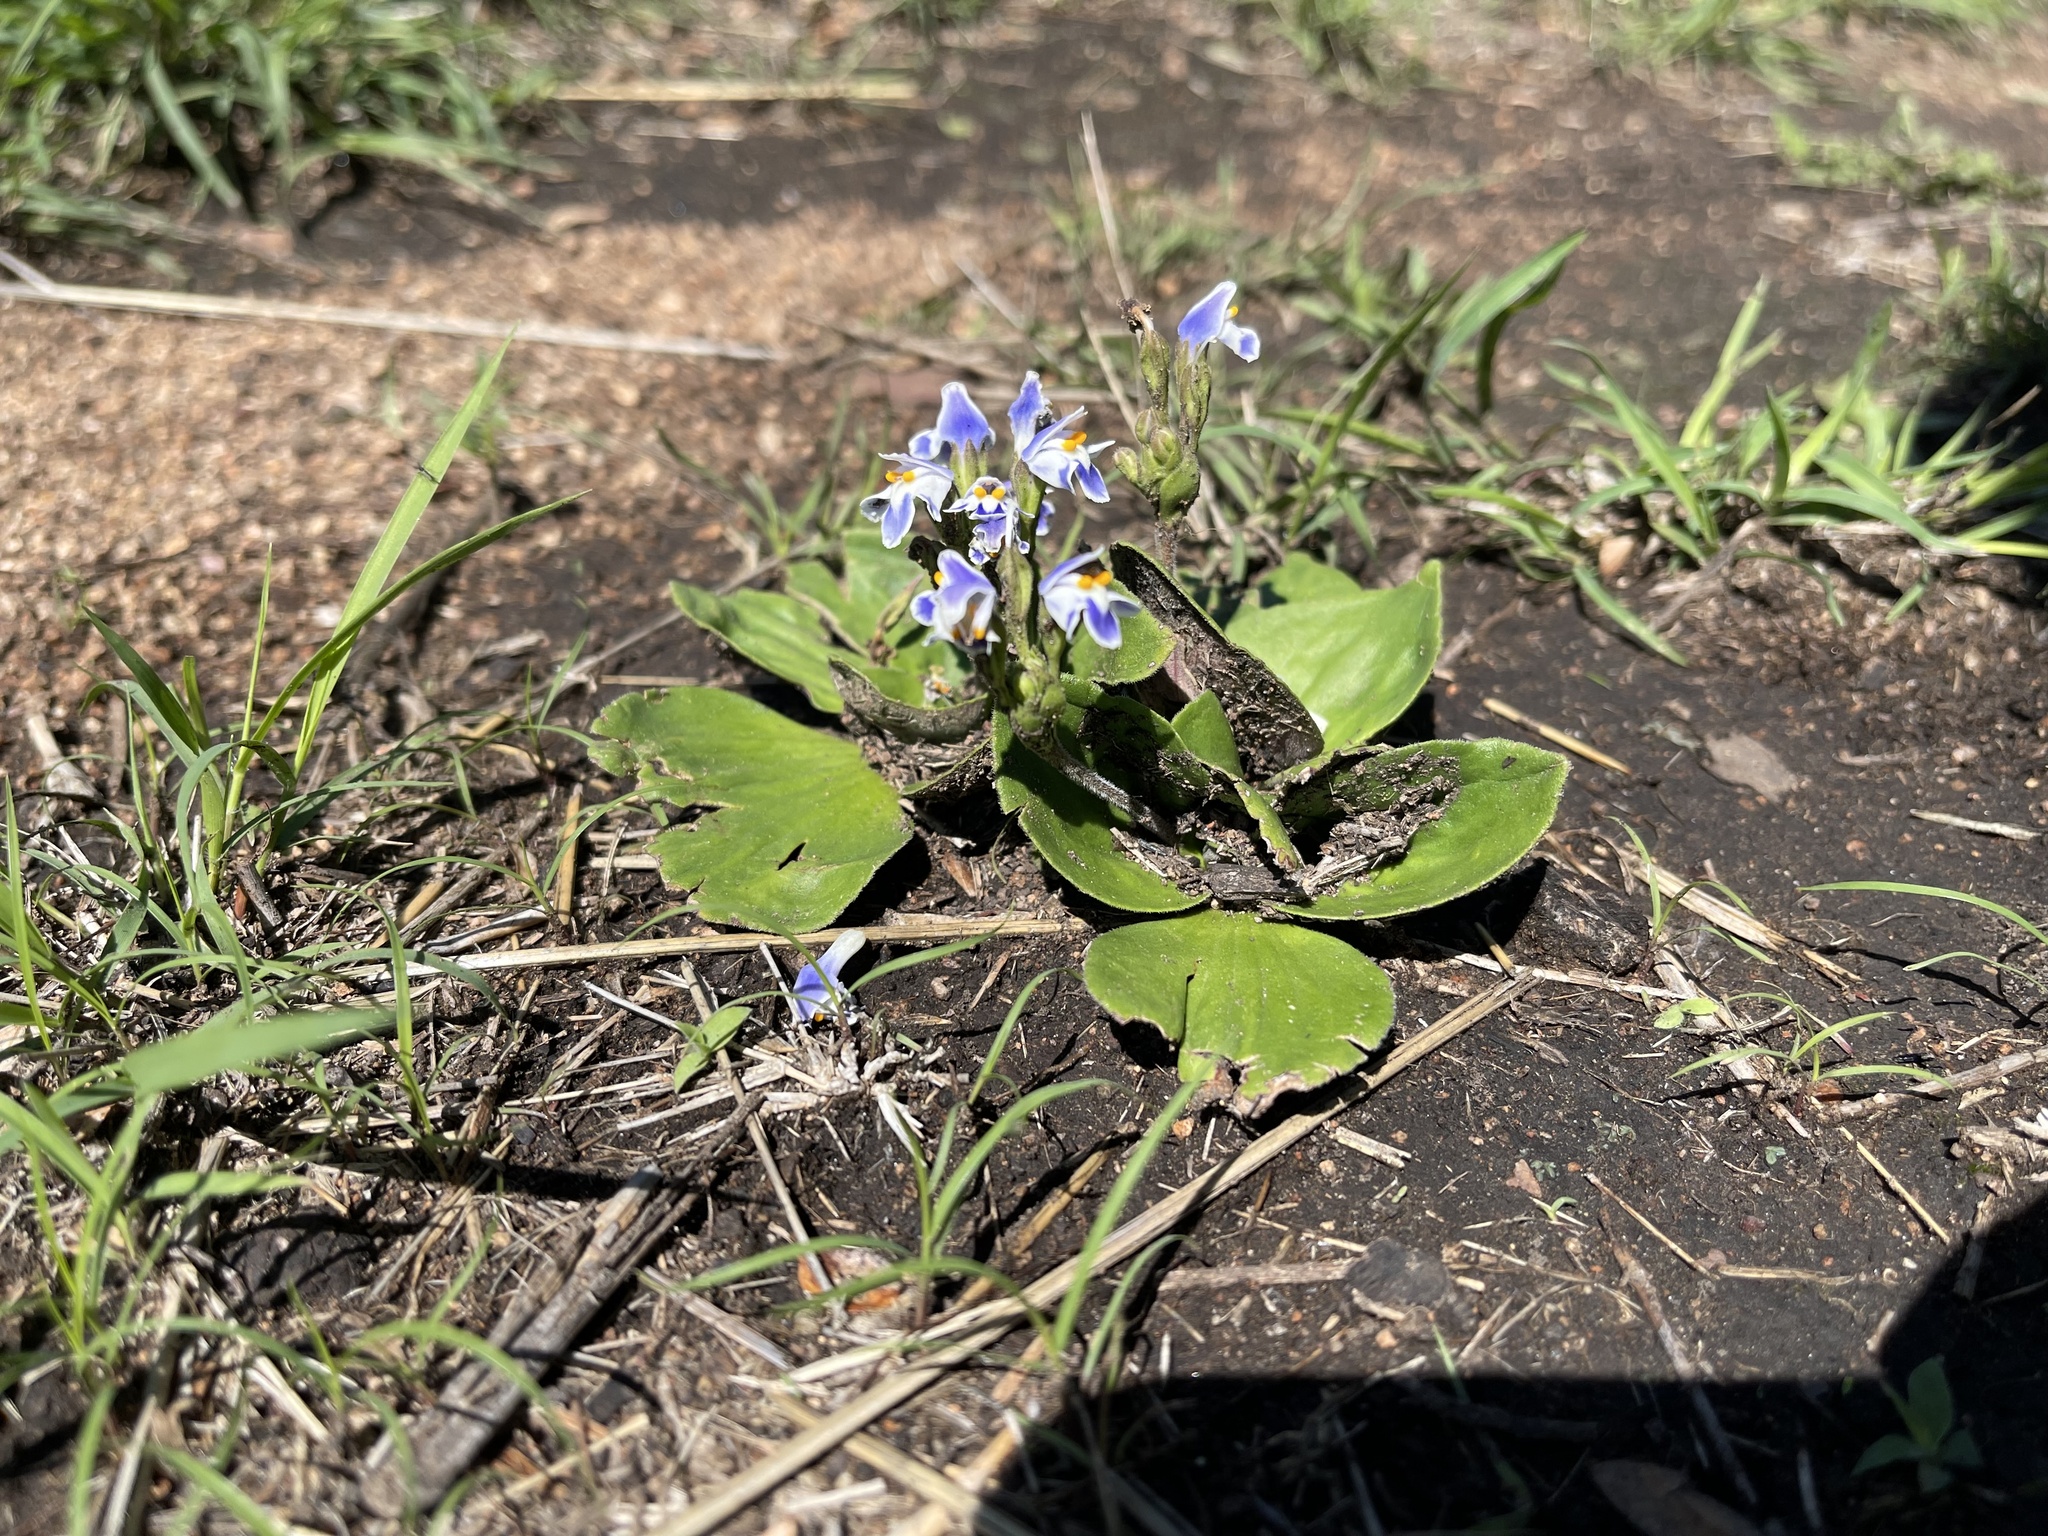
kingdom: Plantae
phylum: Tracheophyta
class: Magnoliopsida
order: Lamiales
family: Linderniaceae
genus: Craterostigma
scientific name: Craterostigma plantagineum
